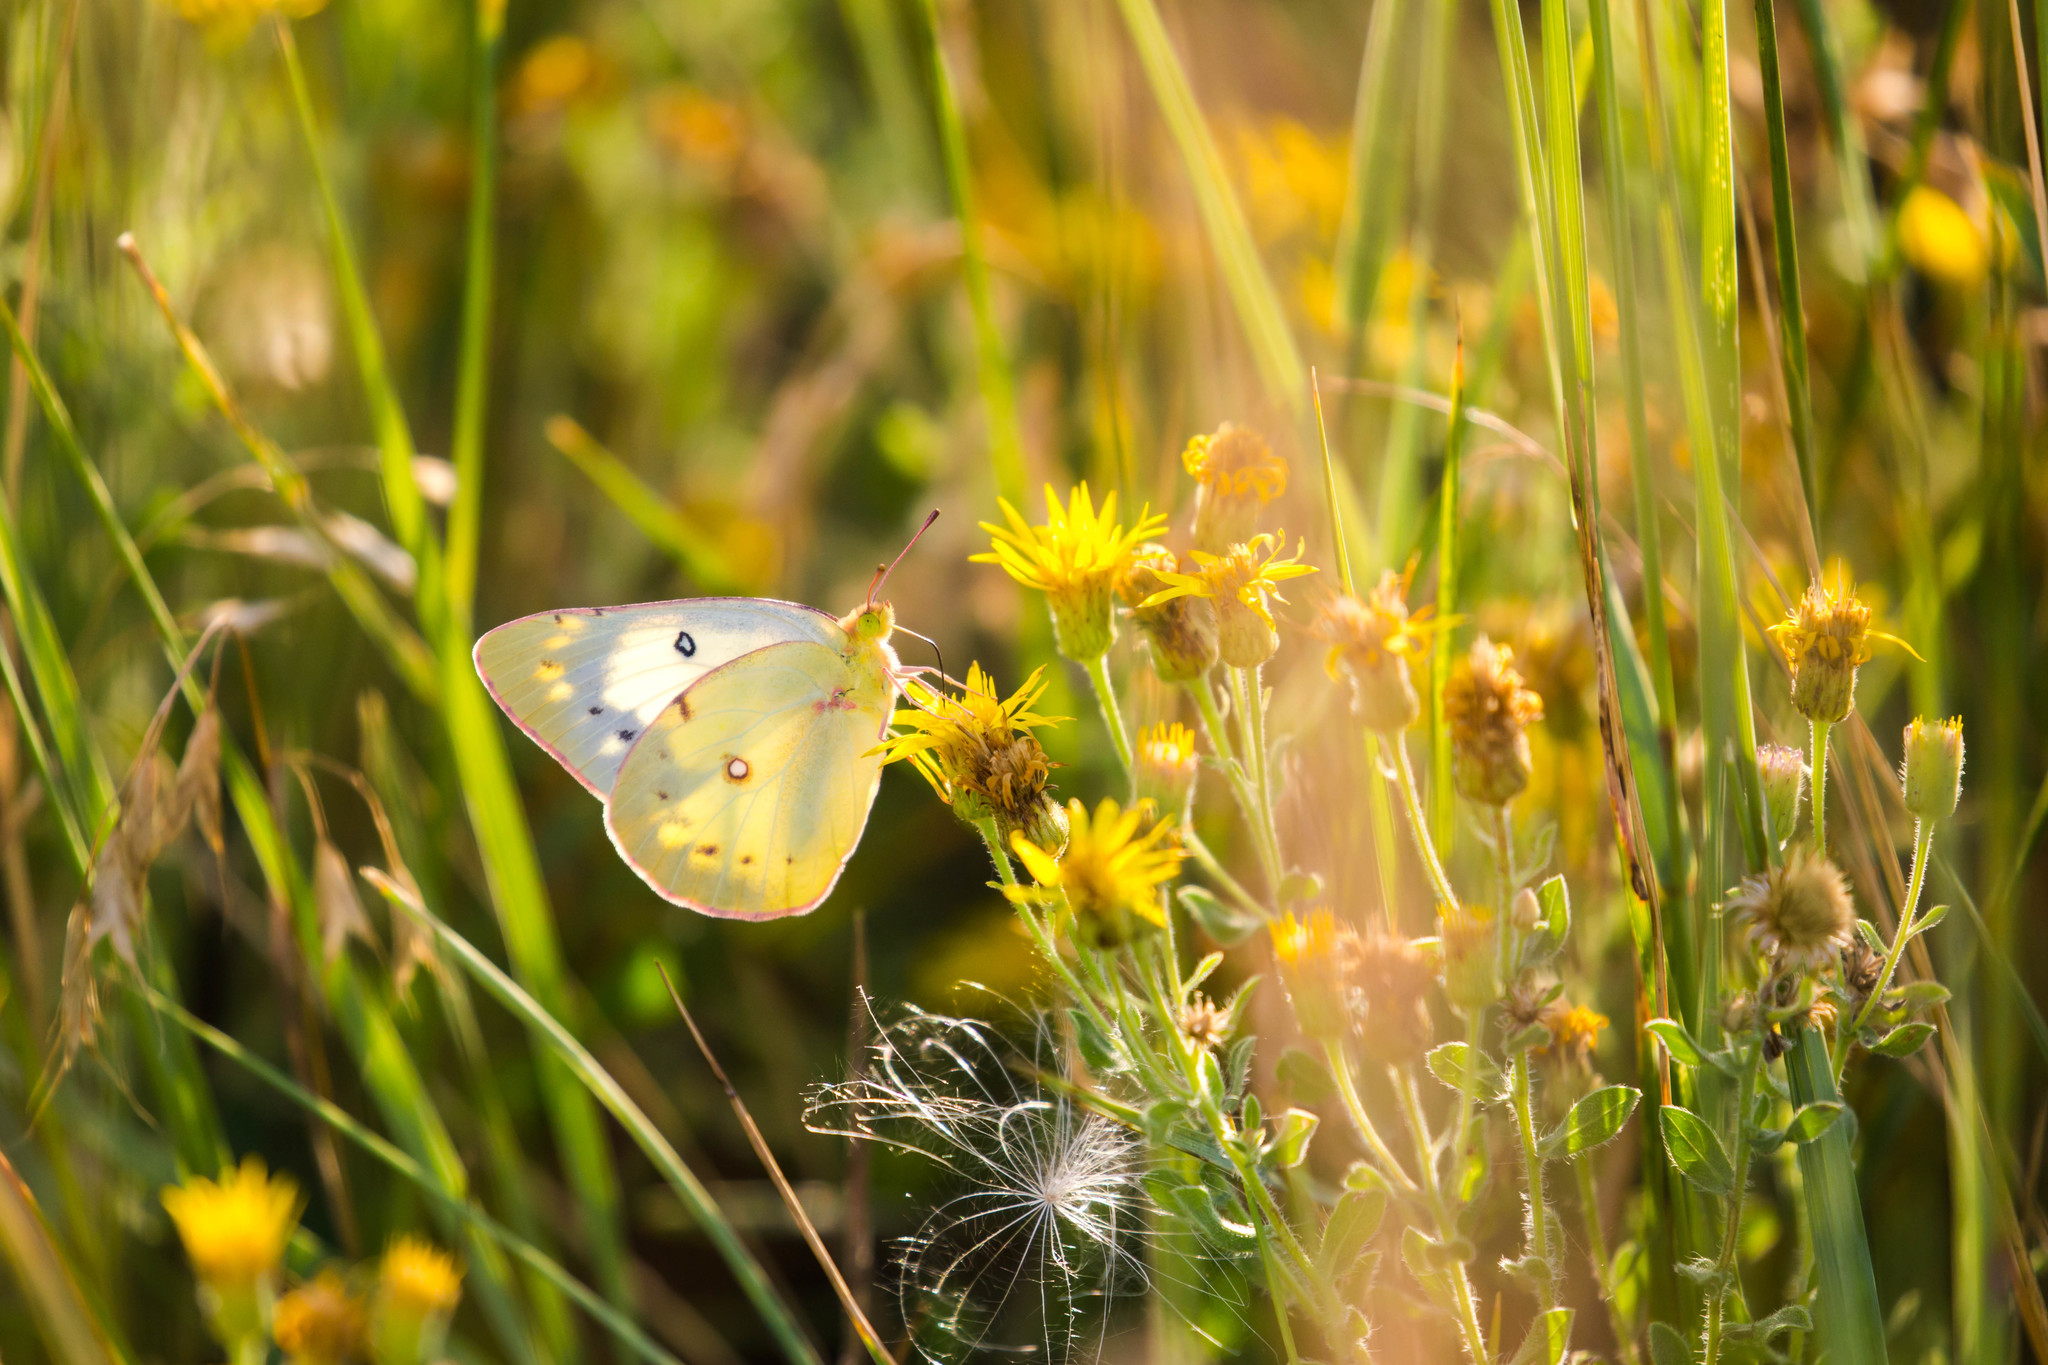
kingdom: Animalia
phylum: Arthropoda
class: Insecta
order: Lepidoptera
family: Pieridae
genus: Colias
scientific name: Colias eurytheme
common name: Alfalfa butterfly
